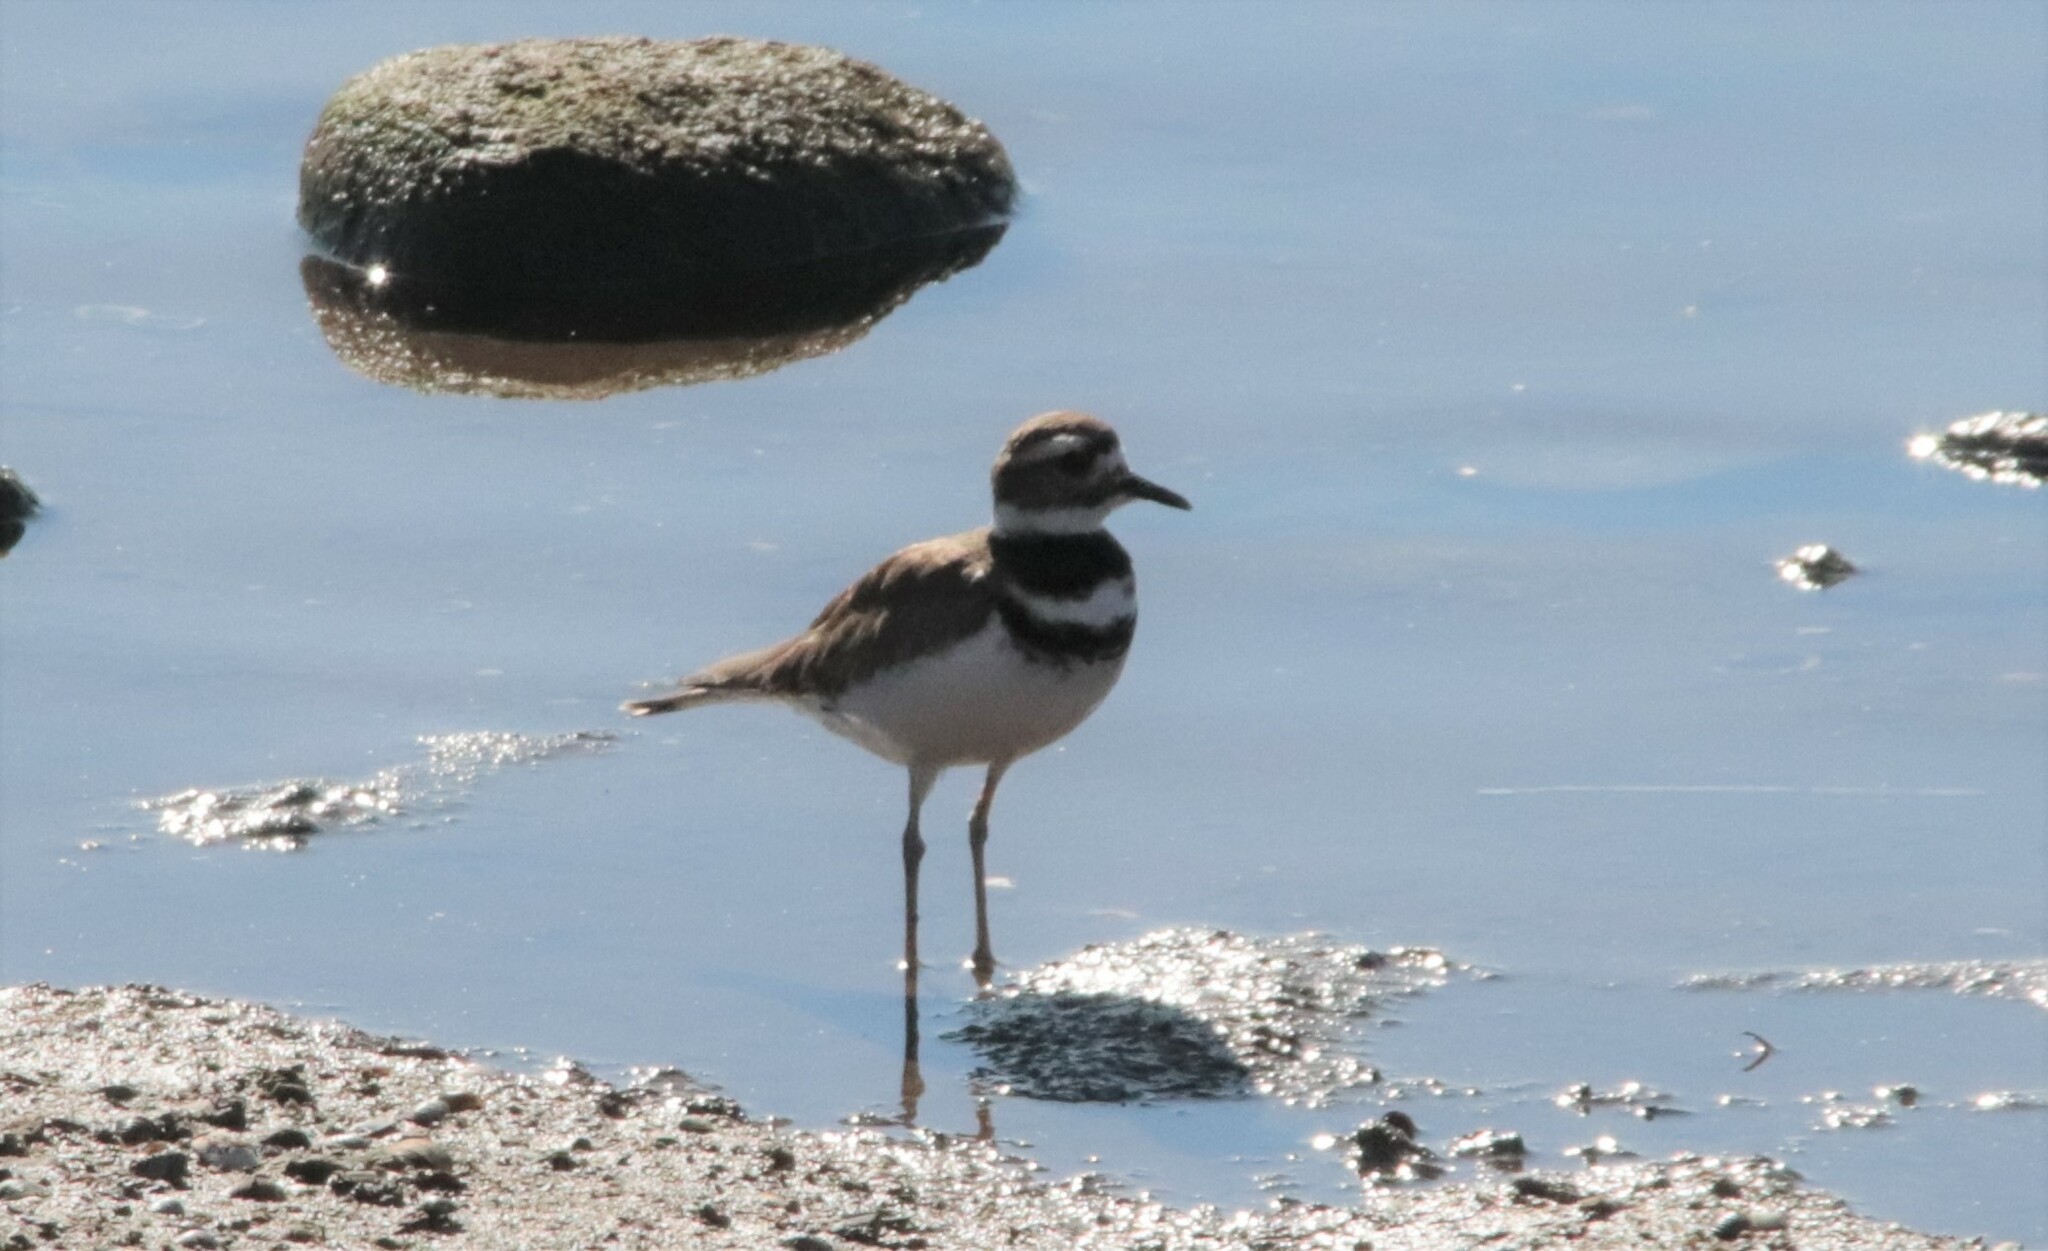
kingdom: Animalia
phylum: Chordata
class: Aves
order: Charadriiformes
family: Charadriidae
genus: Charadrius
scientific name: Charadrius vociferus
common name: Killdeer
